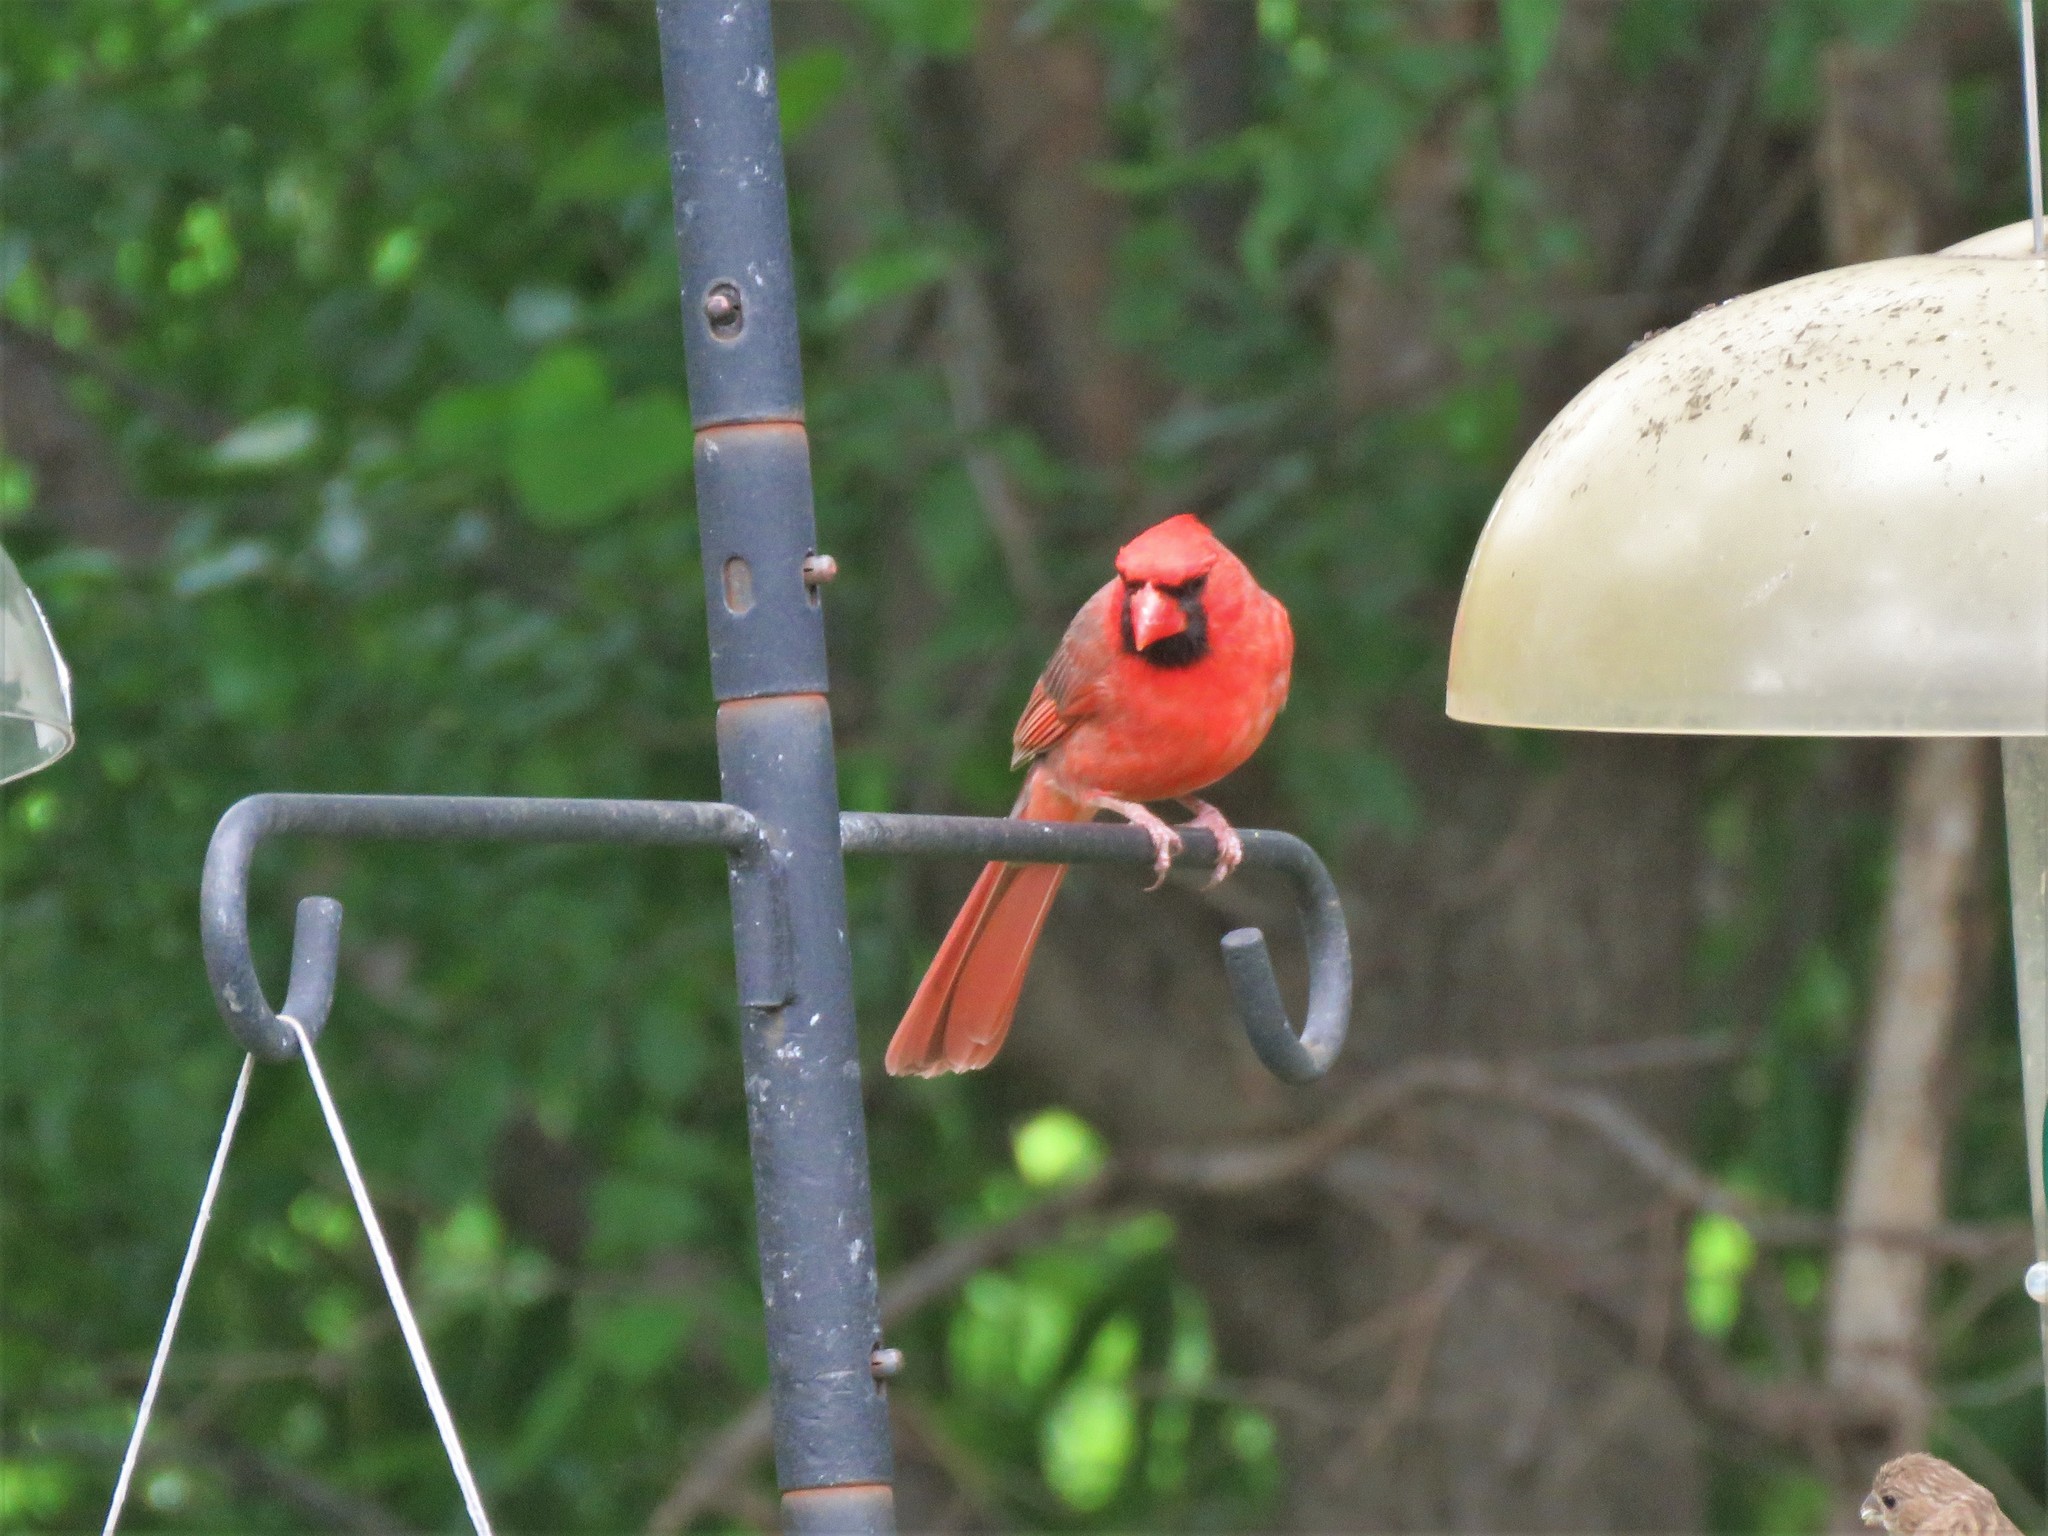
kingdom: Animalia
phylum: Chordata
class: Aves
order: Passeriformes
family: Cardinalidae
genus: Cardinalis
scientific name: Cardinalis cardinalis
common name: Northern cardinal
